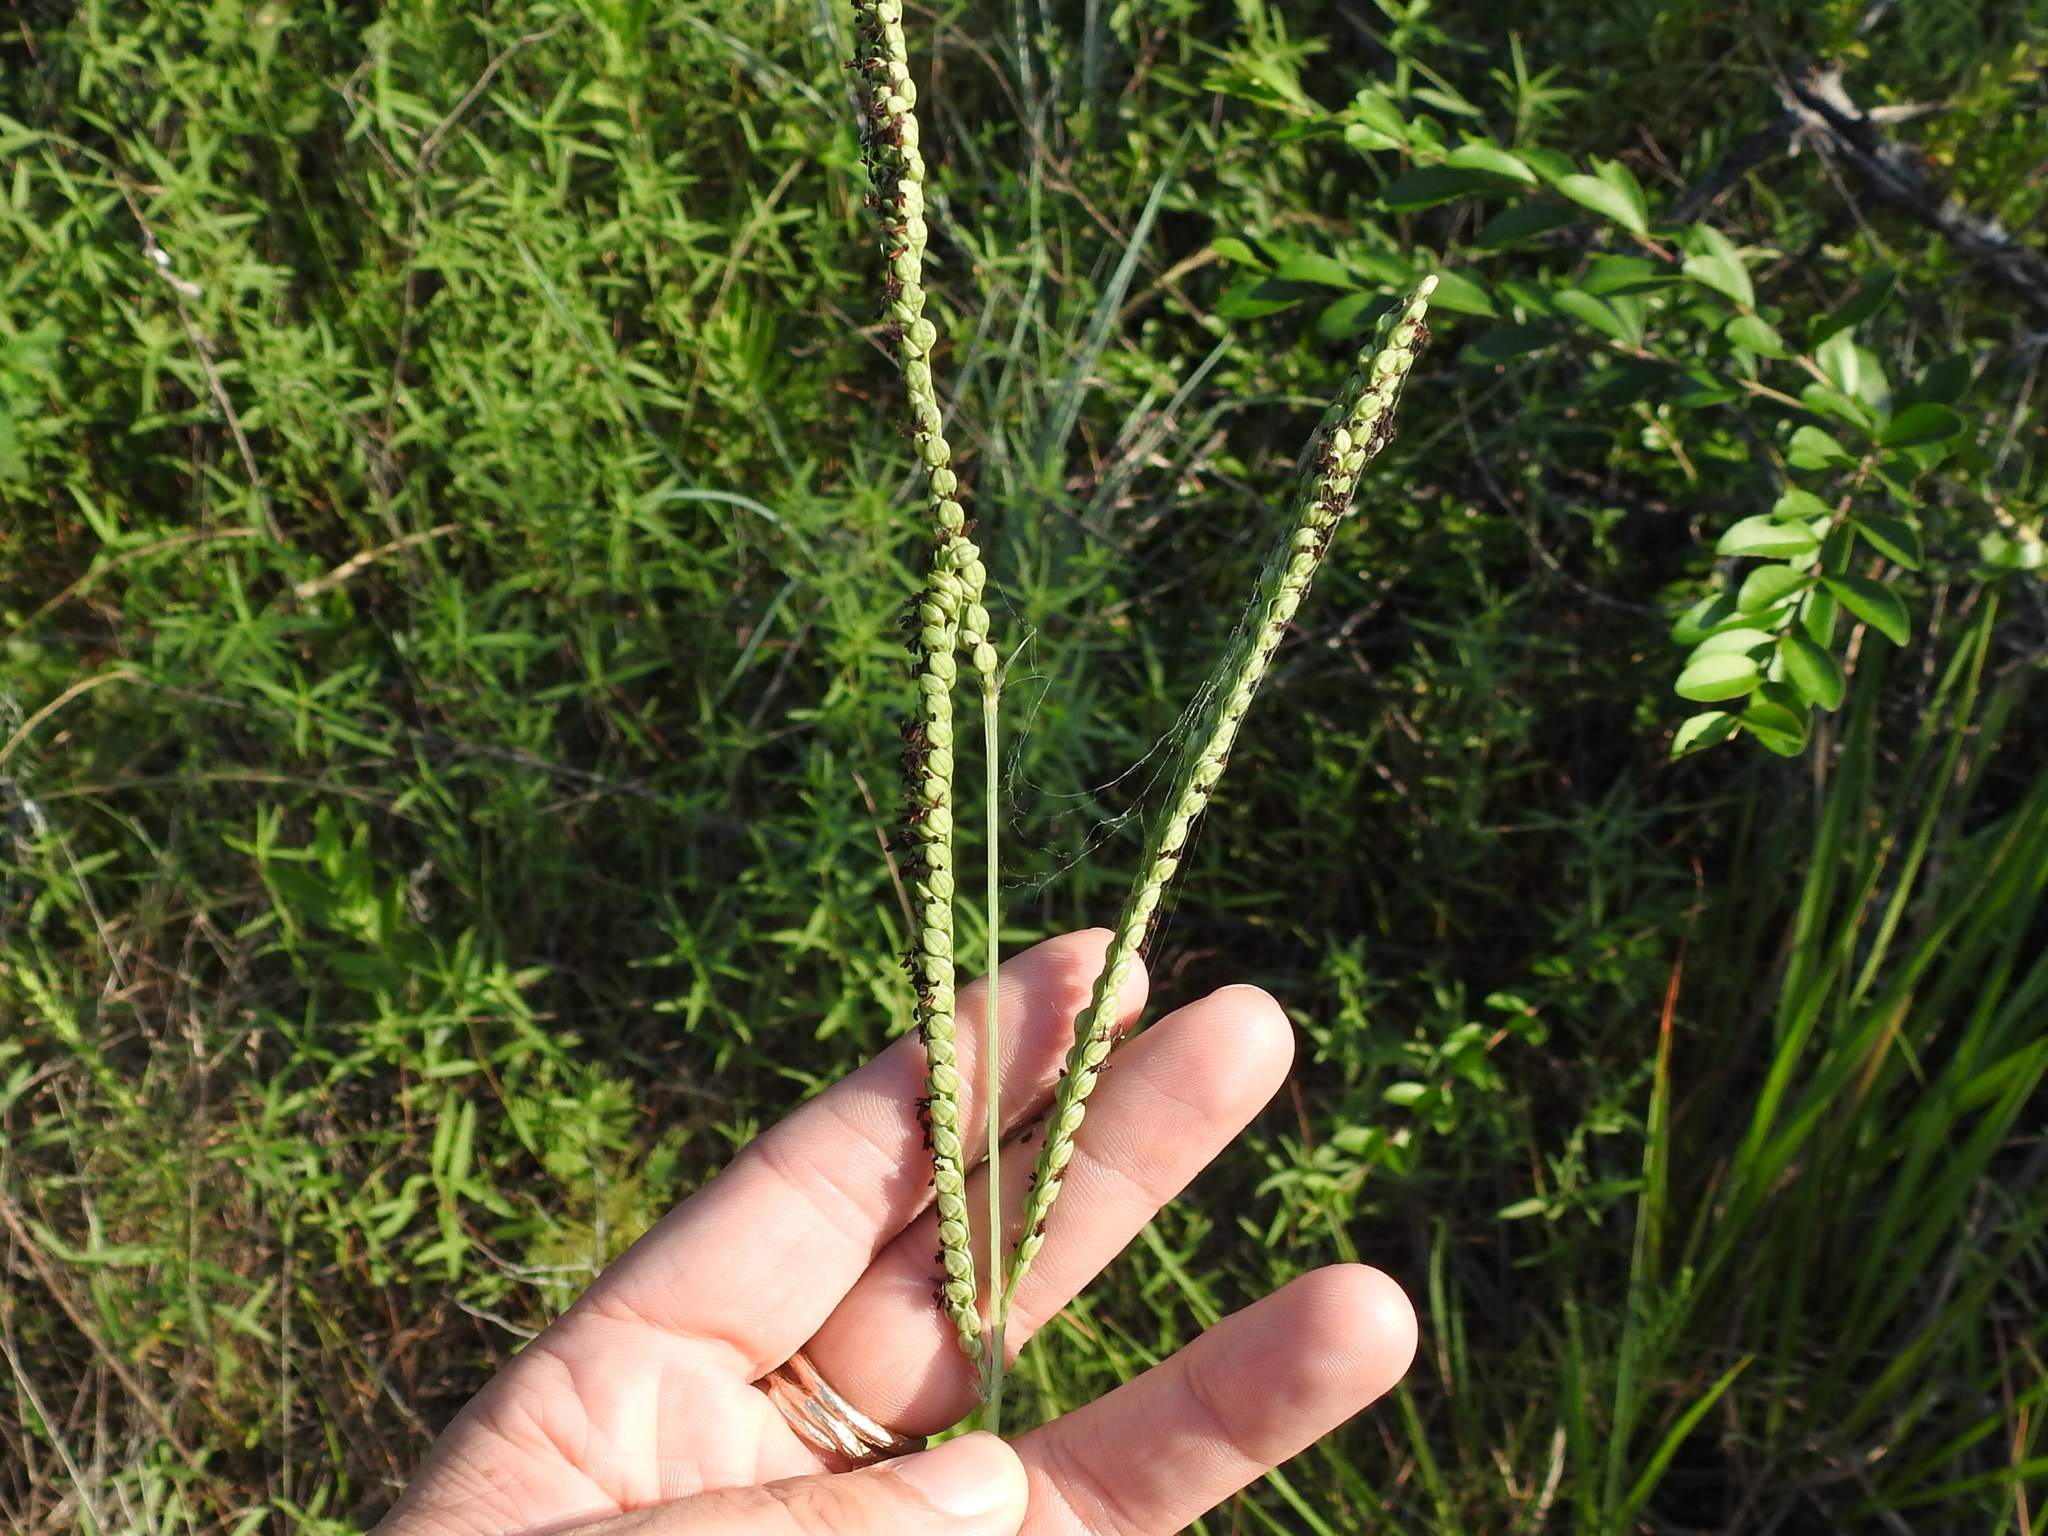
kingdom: Plantae
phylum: Tracheophyta
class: Liliopsida
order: Poales
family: Poaceae
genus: Paspalum
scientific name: Paspalum floridanum
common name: Florida paspalum
